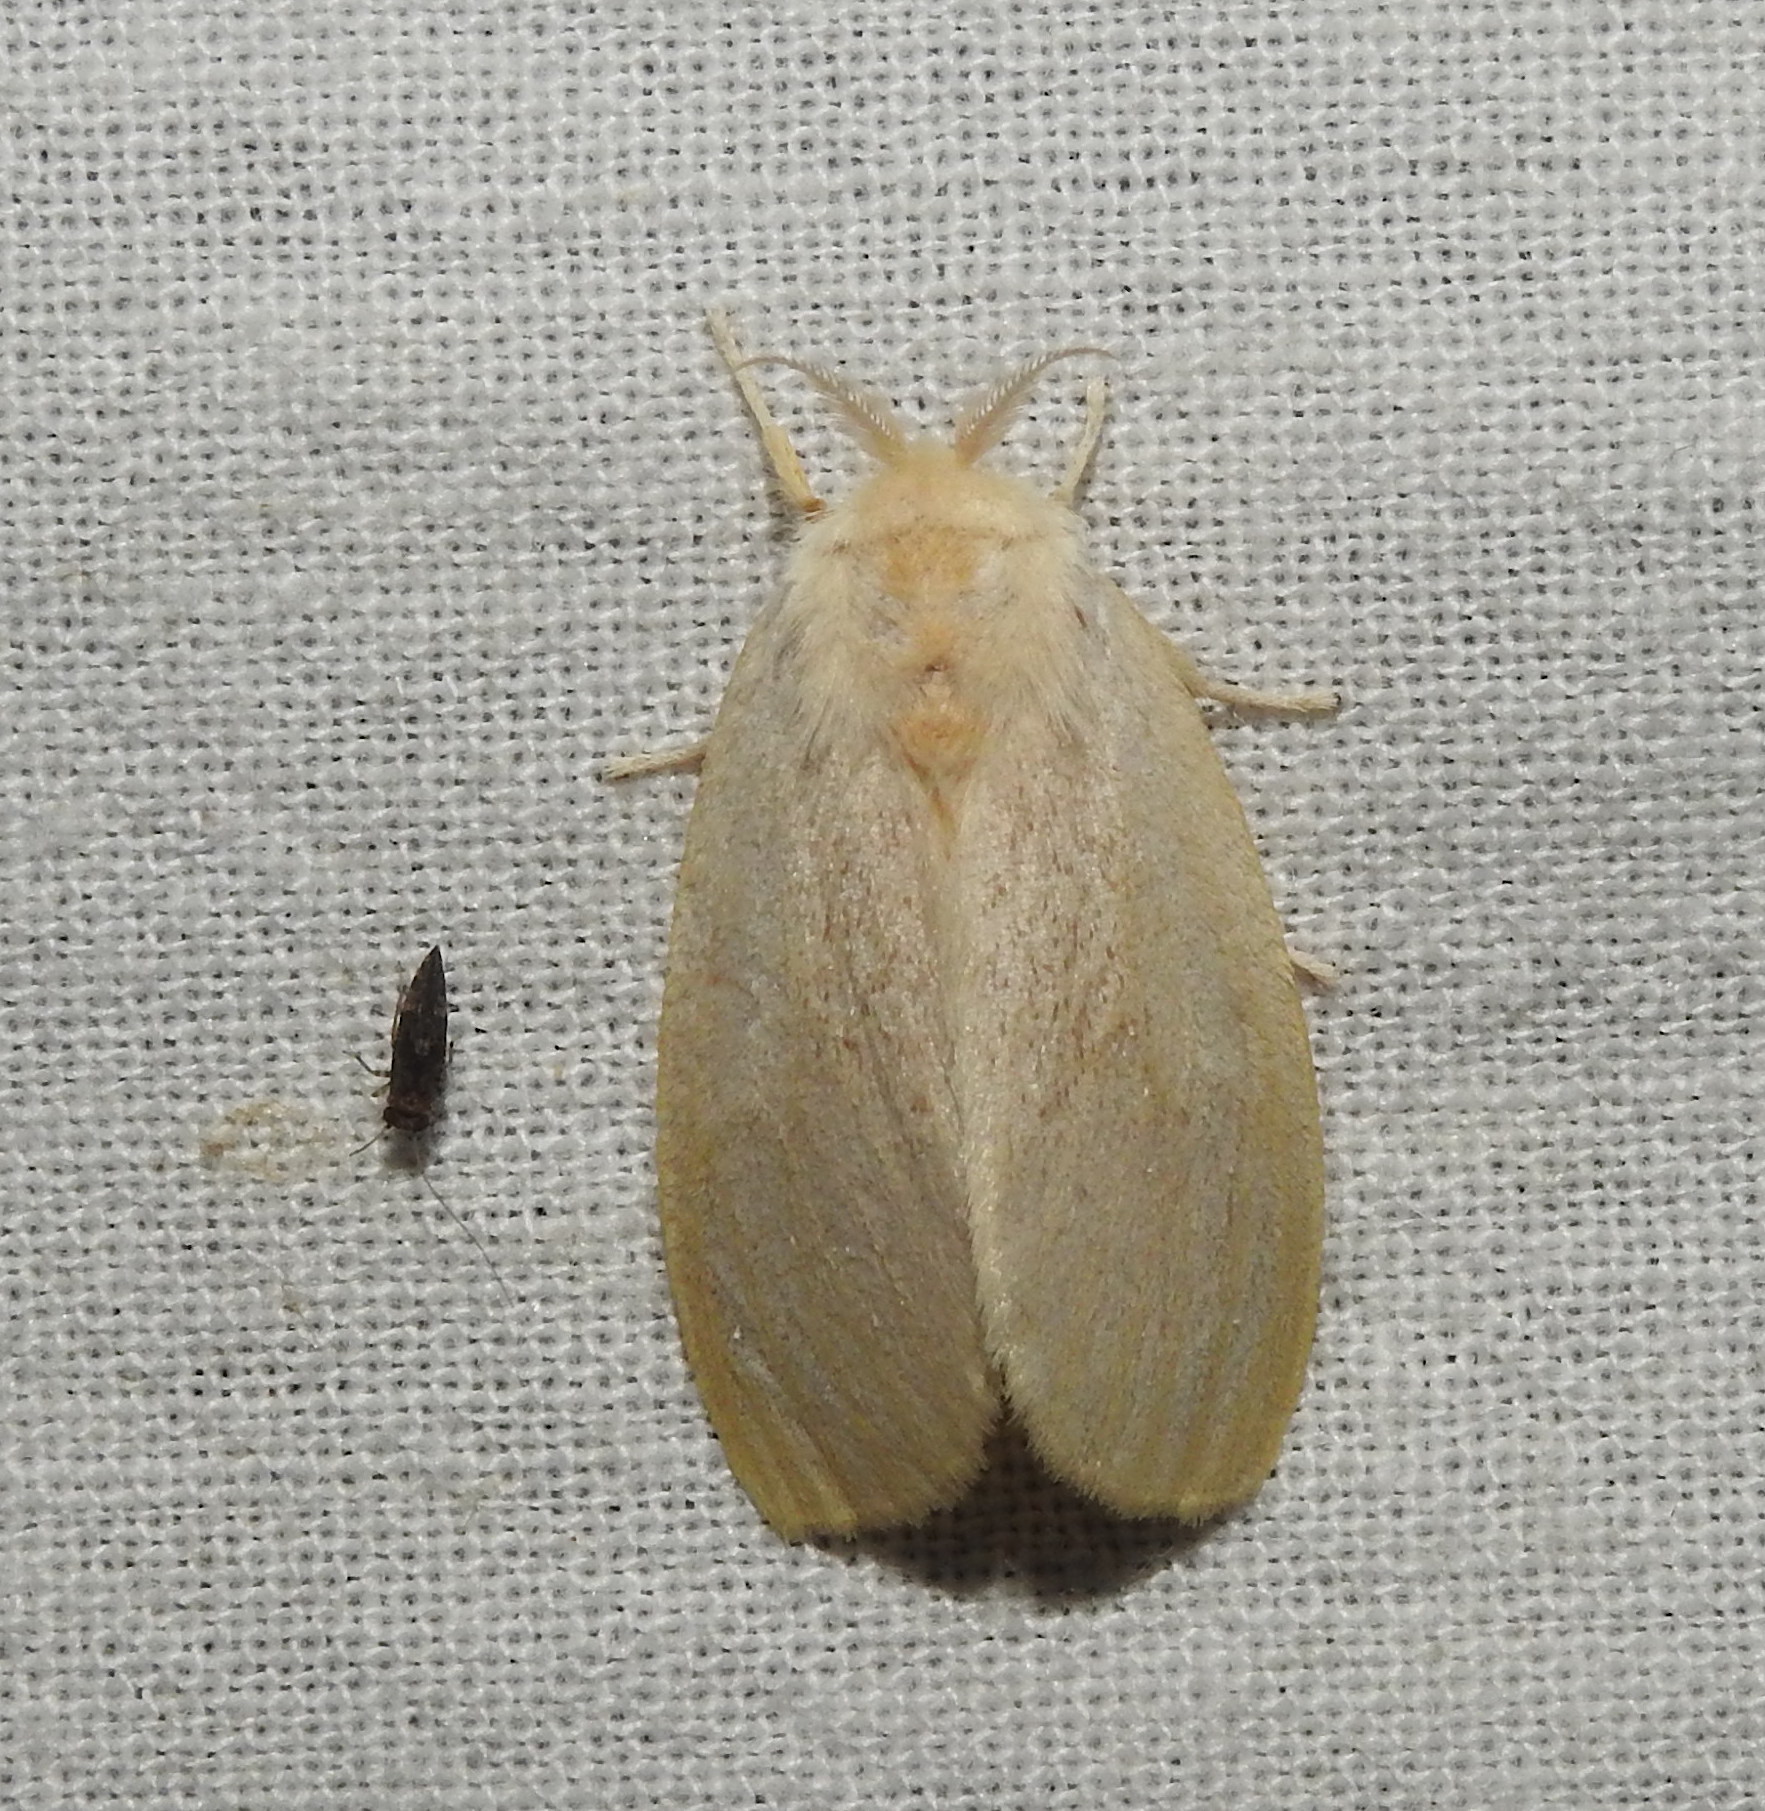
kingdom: Animalia
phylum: Arthropoda
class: Insecta
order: Lepidoptera
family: Erebidae
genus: Perina
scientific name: Perina nuda
